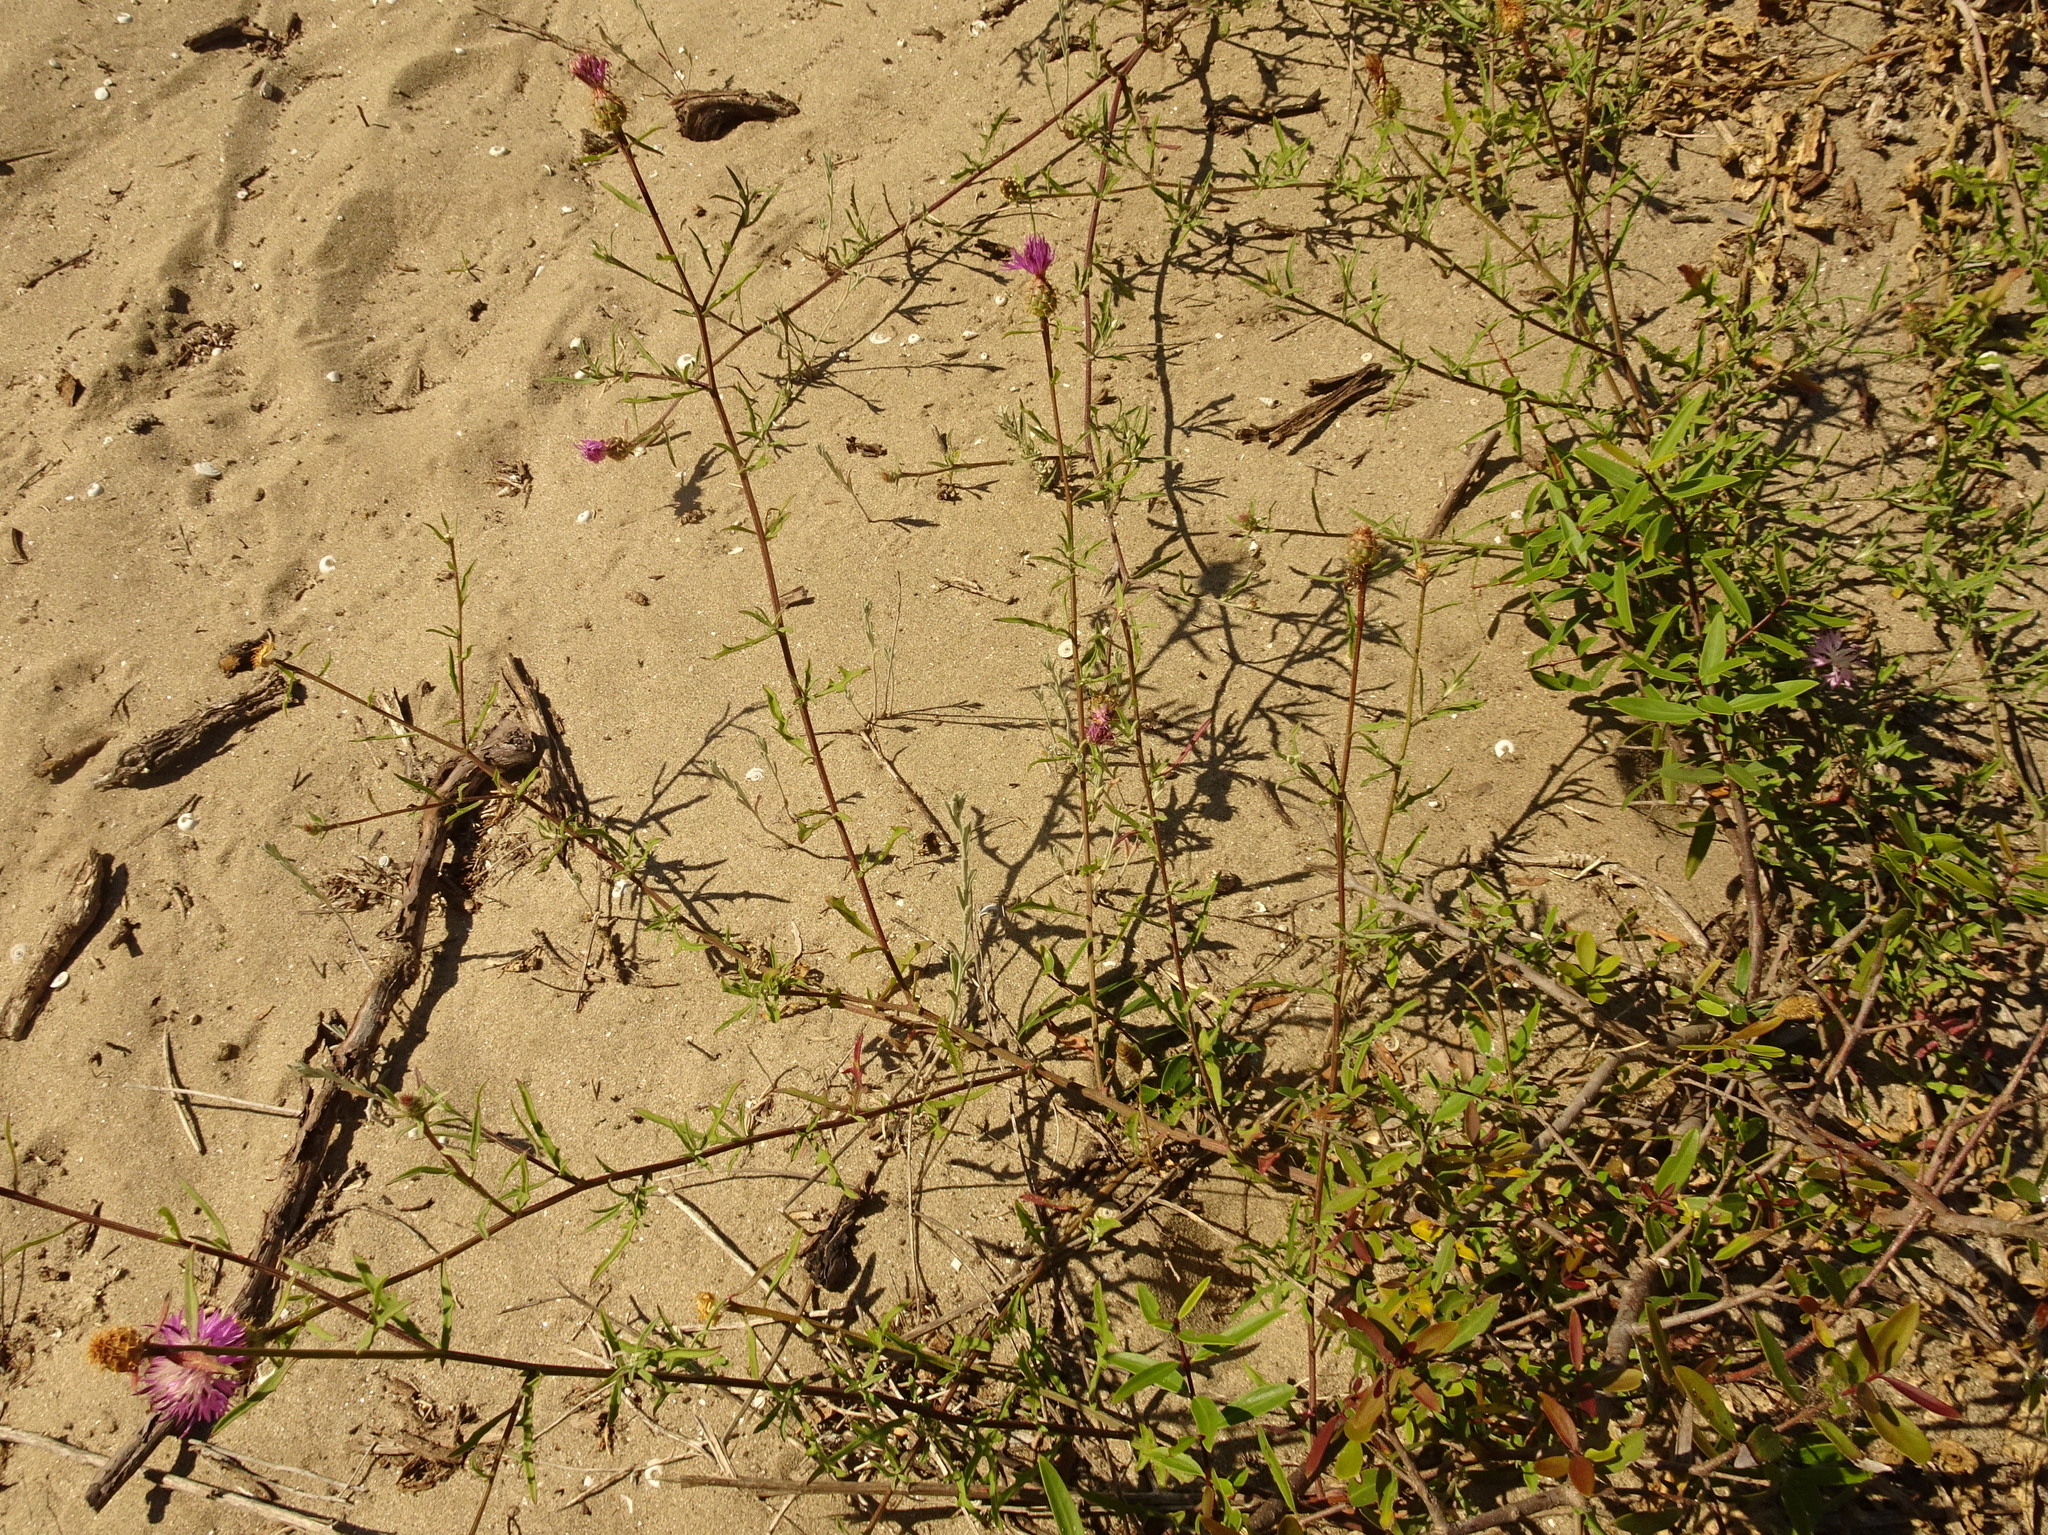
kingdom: Plantae
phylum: Tracheophyta
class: Magnoliopsida
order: Asterales
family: Asteraceae
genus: Centaurea
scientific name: Centaurea aspera
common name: Rough star-thistle
